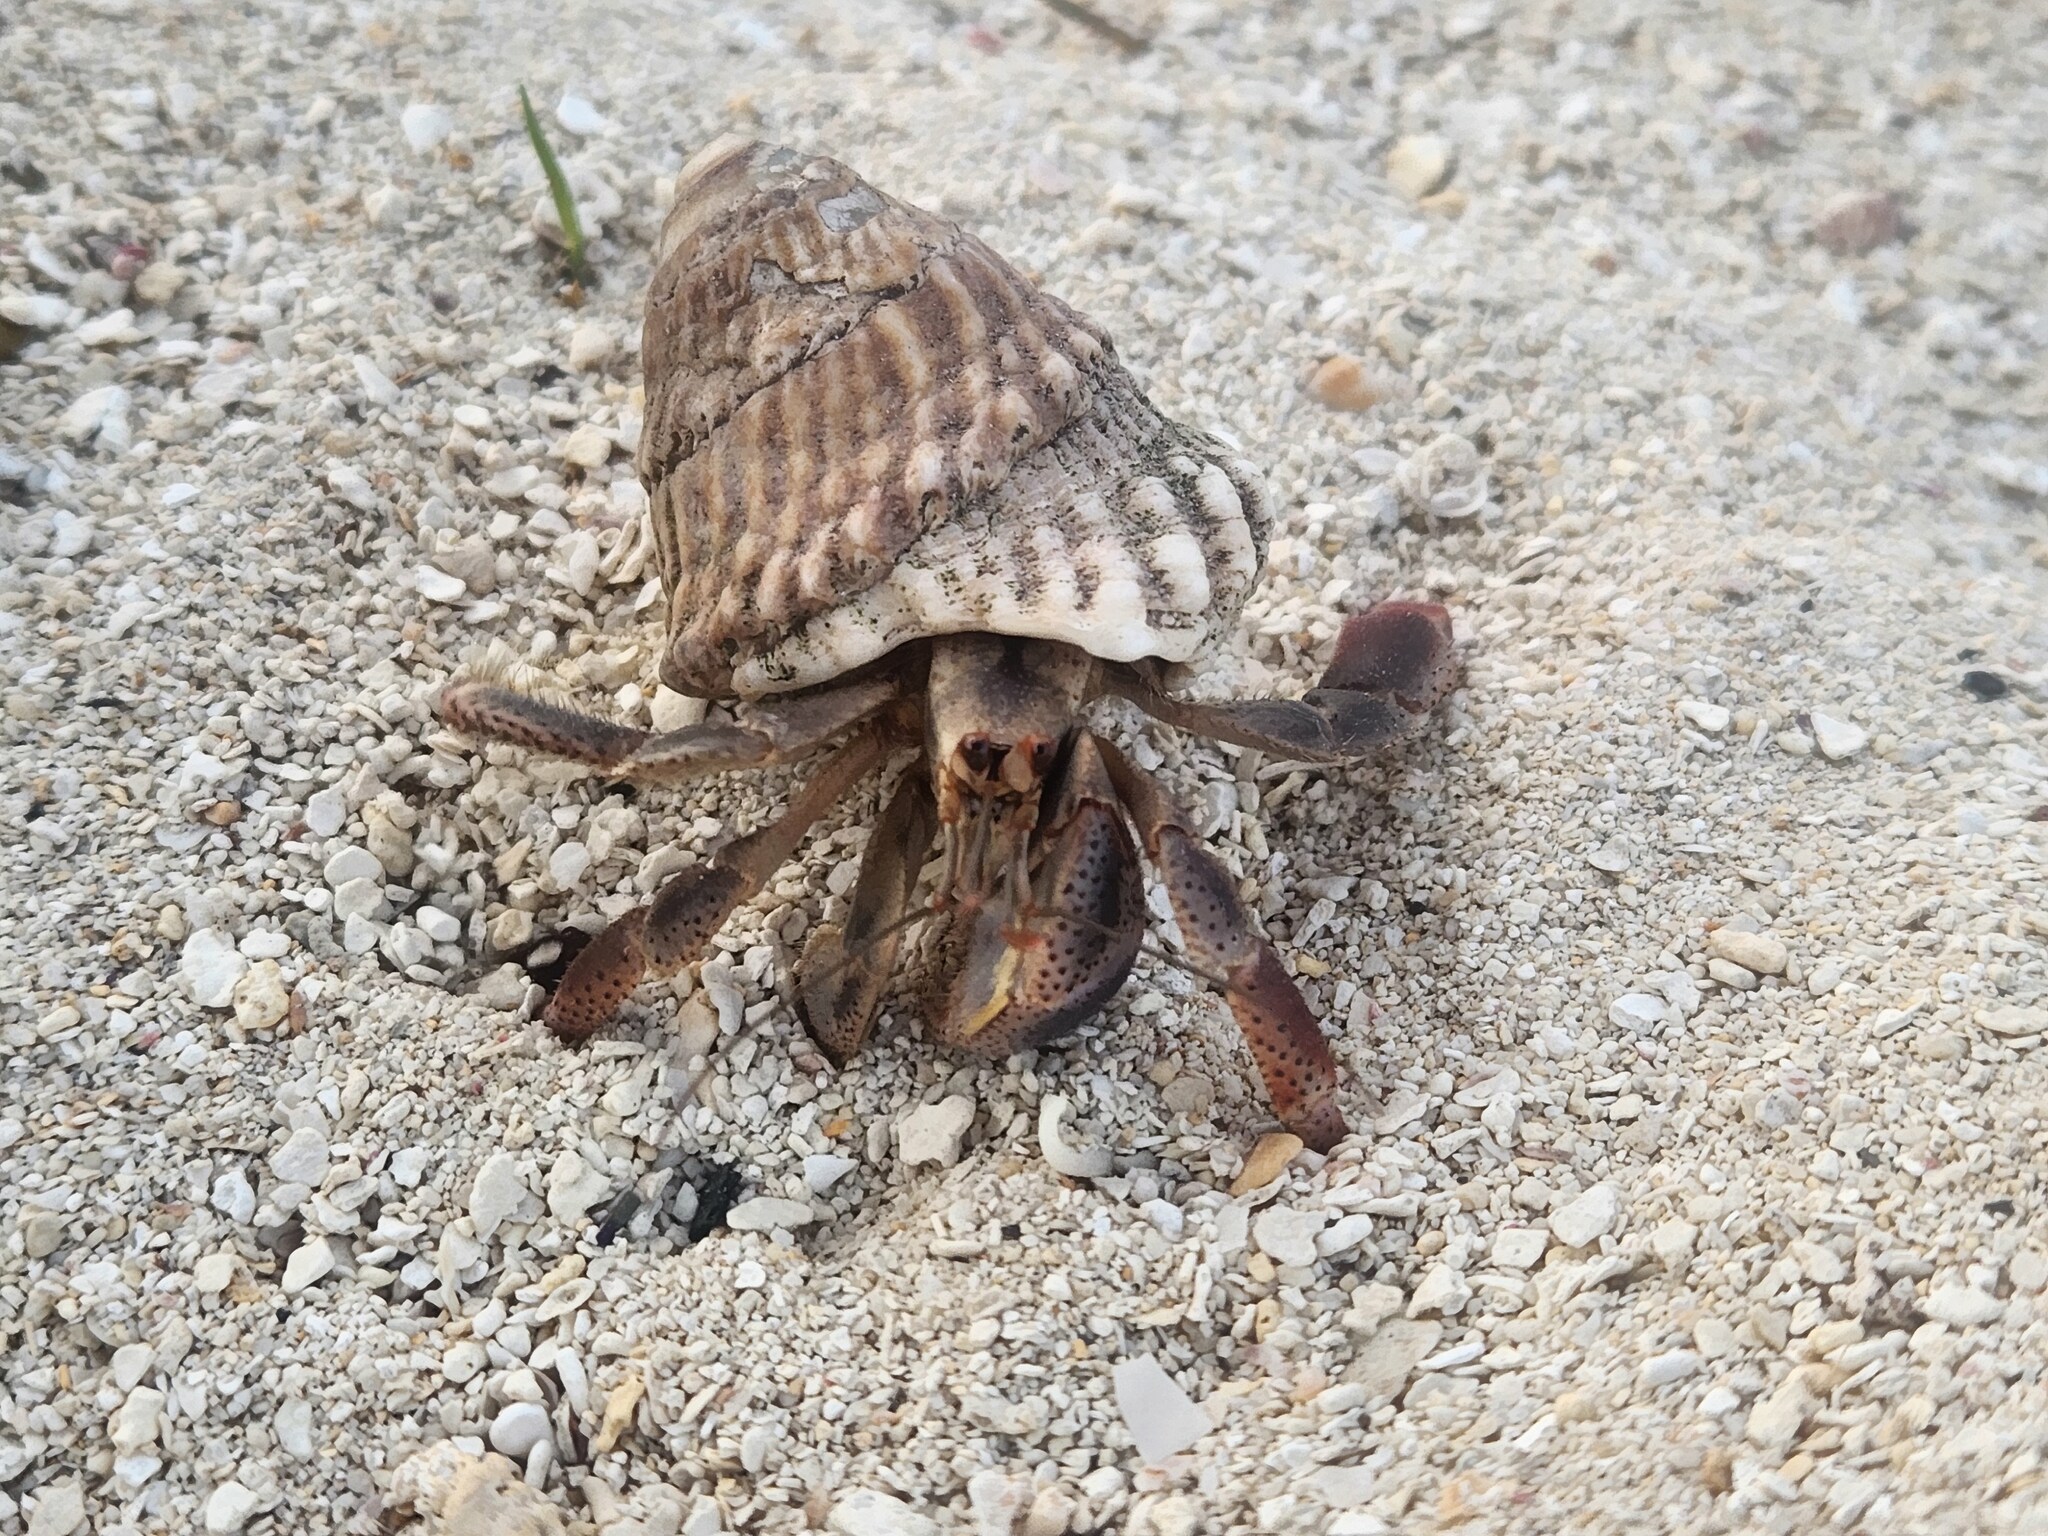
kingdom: Animalia
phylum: Arthropoda
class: Malacostraca
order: Decapoda
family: Coenobitidae
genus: Coenobita
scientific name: Coenobita clypeatus
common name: Caribbean hermit crab
